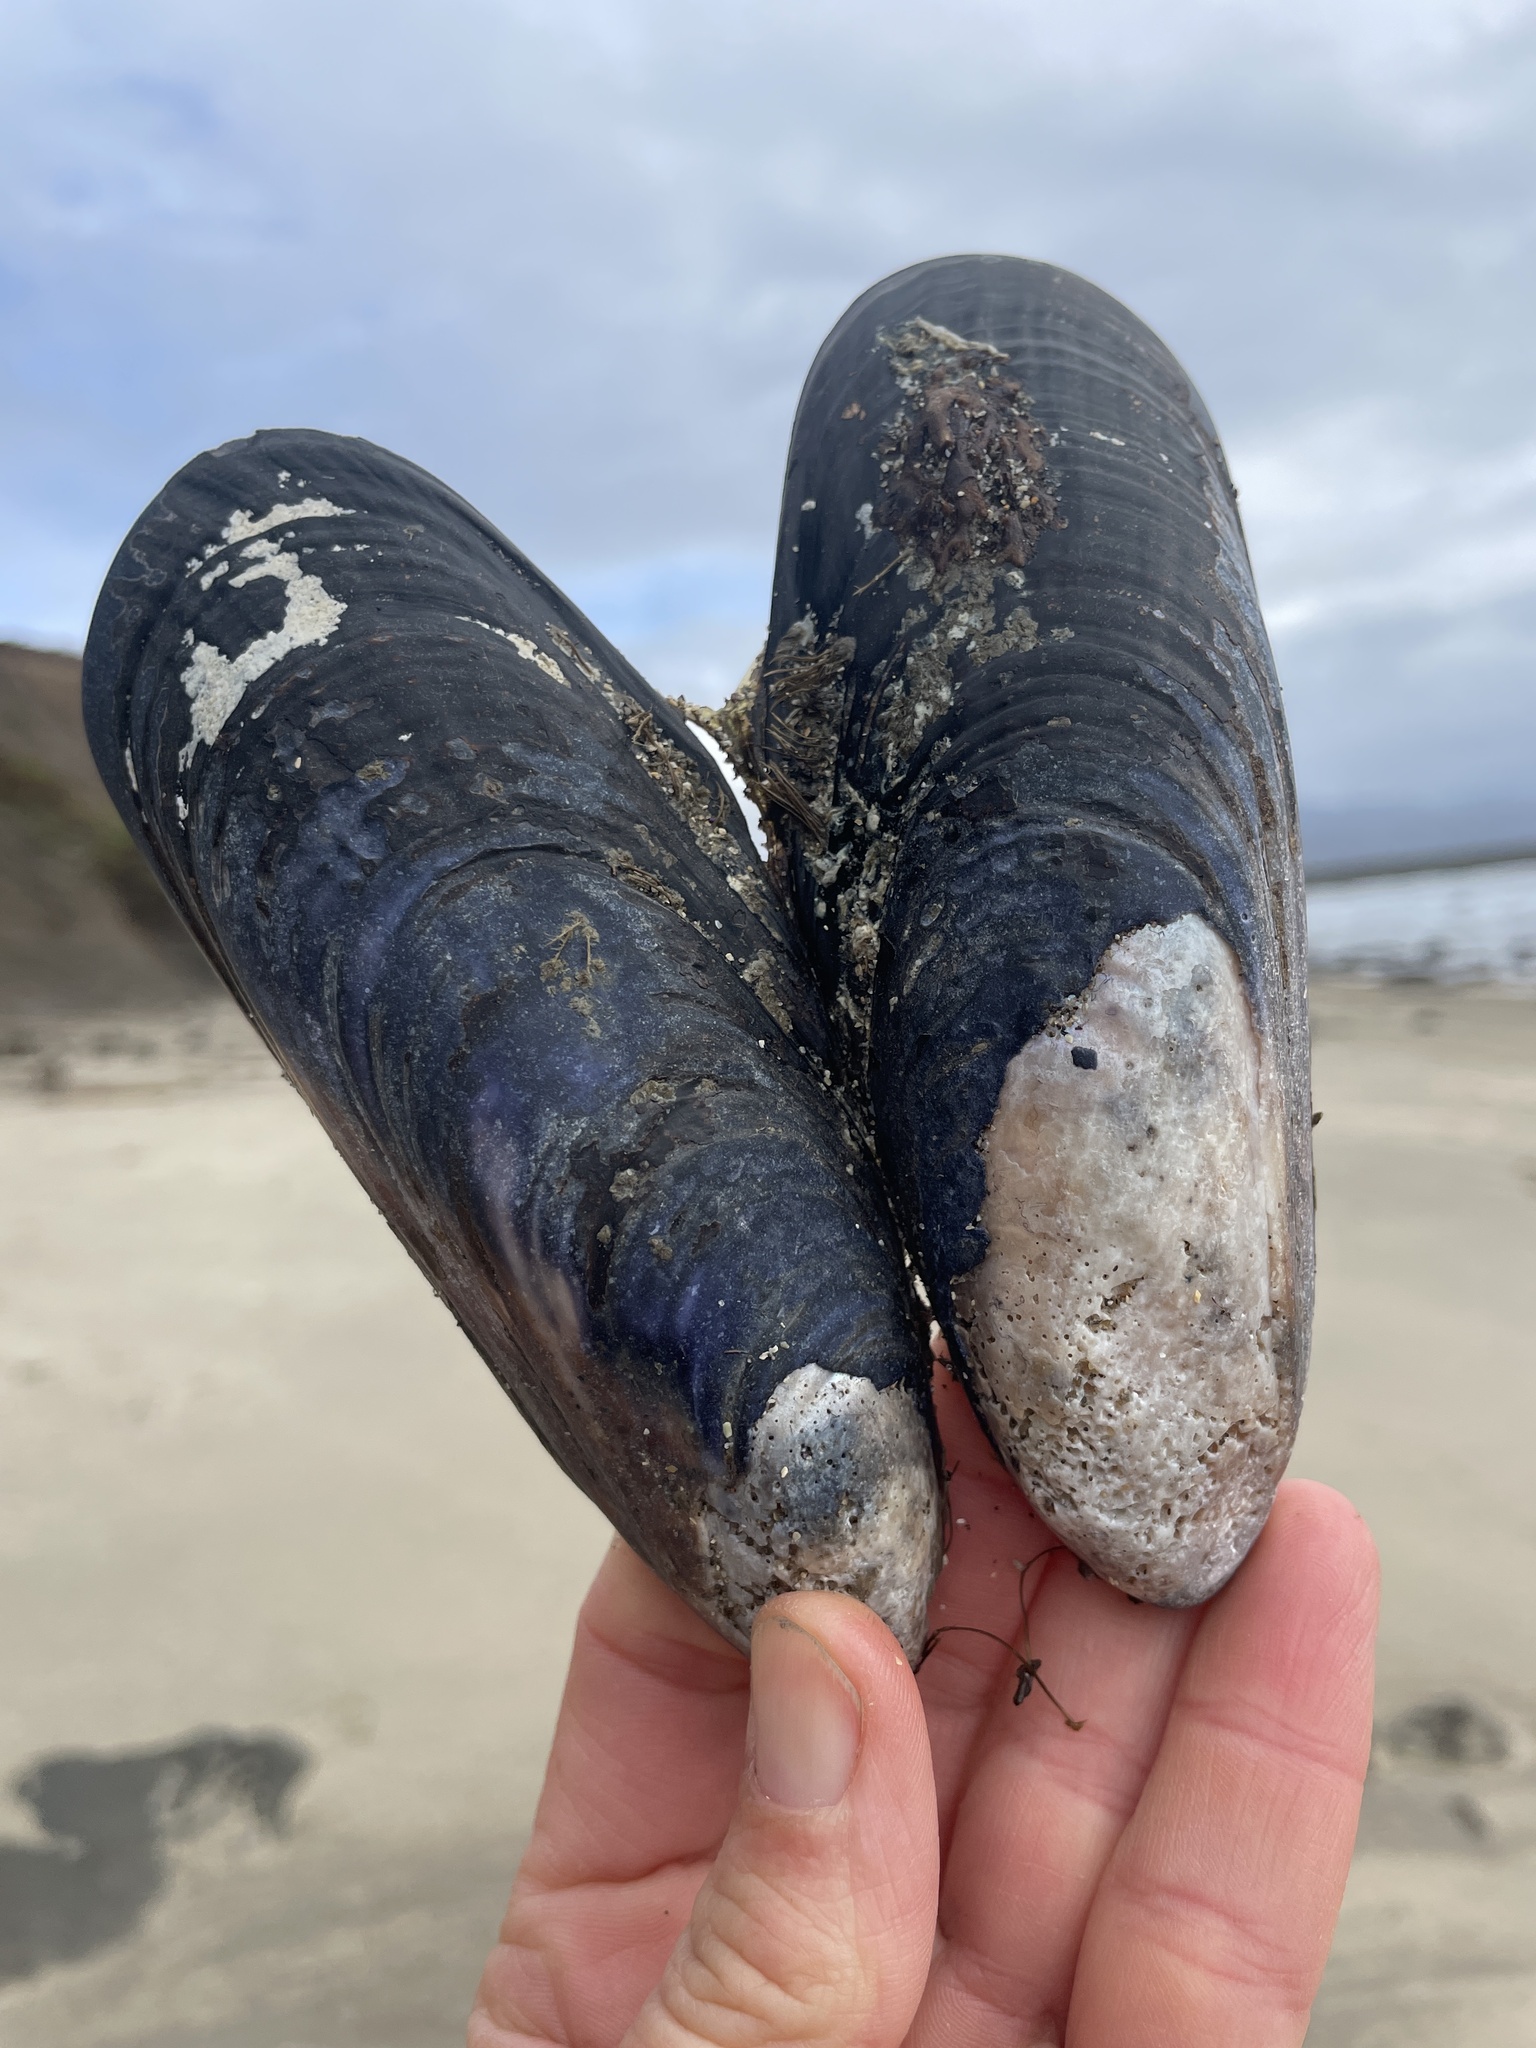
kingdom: Animalia
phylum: Mollusca
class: Bivalvia
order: Mytilida
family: Mytilidae
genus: Mytilus
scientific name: Mytilus californianus
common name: California mussel
